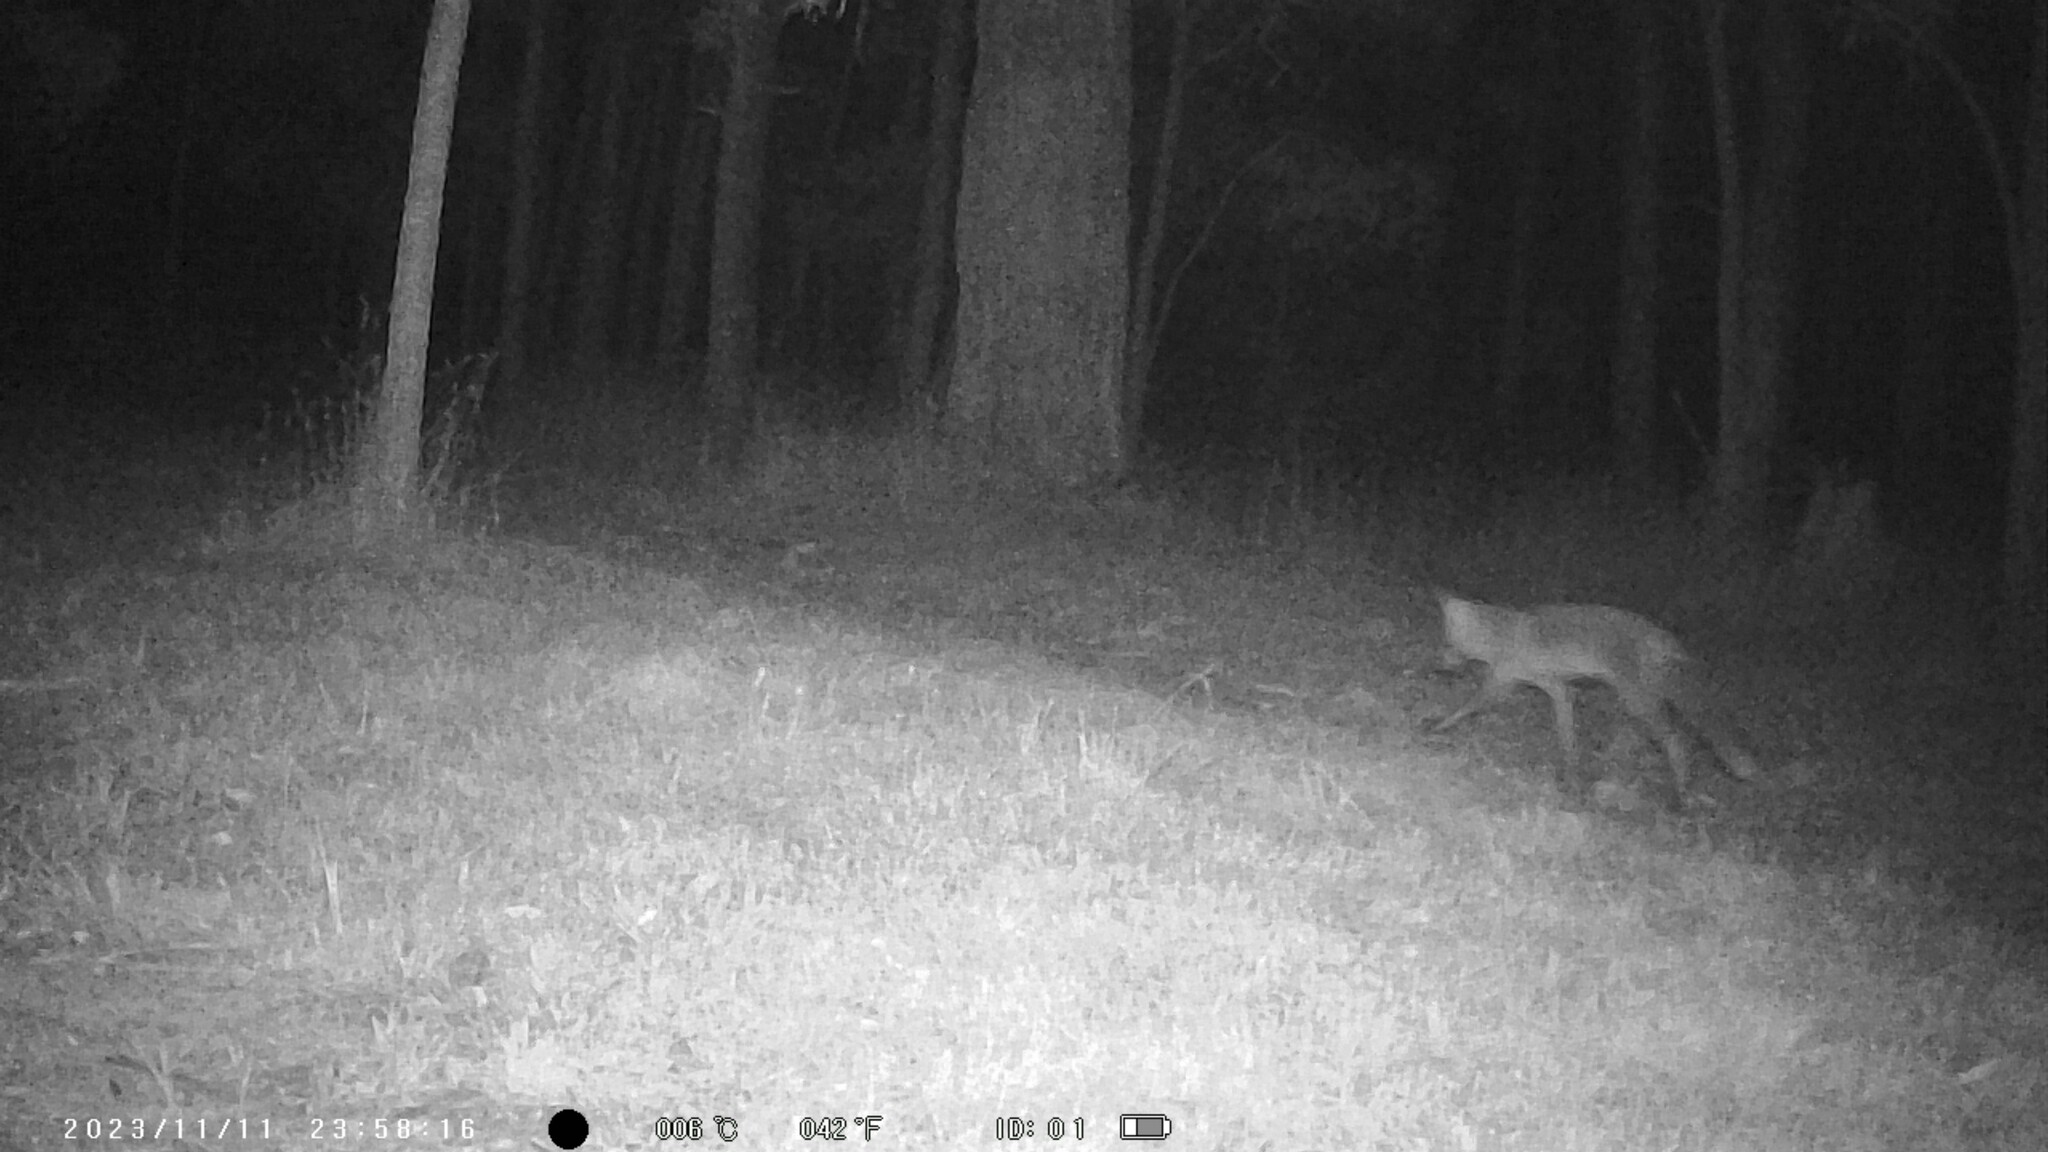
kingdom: Animalia
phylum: Chordata
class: Mammalia
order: Carnivora
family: Canidae
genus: Vulpes
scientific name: Vulpes vulpes
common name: Red fox
